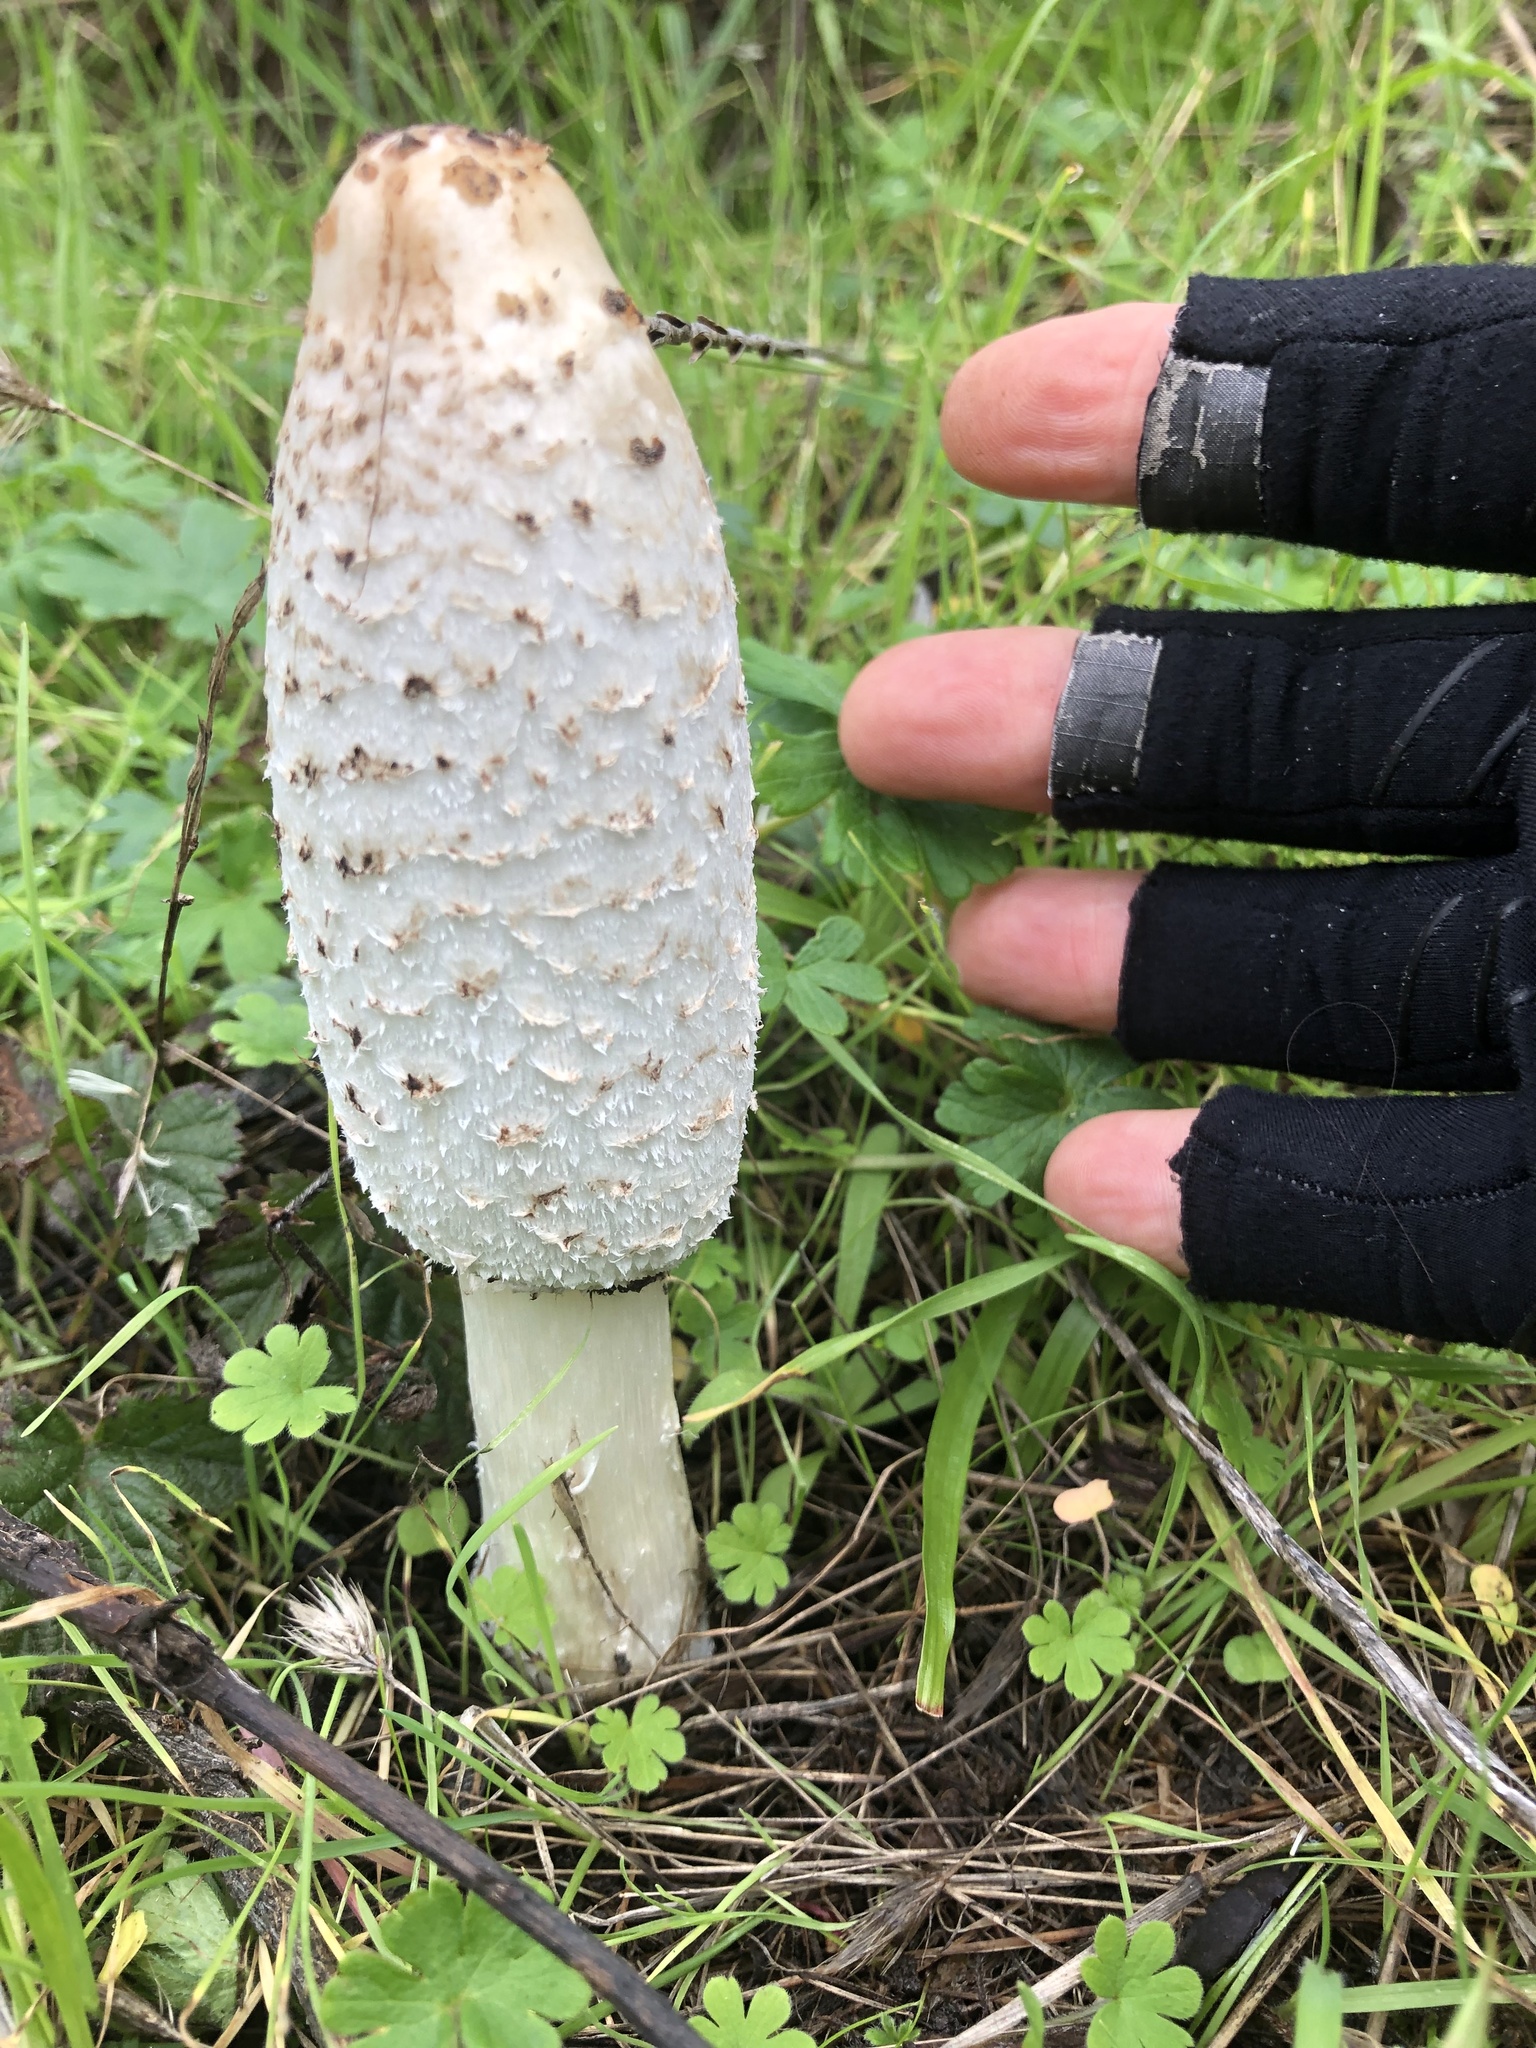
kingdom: Fungi
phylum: Basidiomycota
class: Agaricomycetes
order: Agaricales
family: Agaricaceae
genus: Coprinus
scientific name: Coprinus comatus
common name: Lawyer's wig
